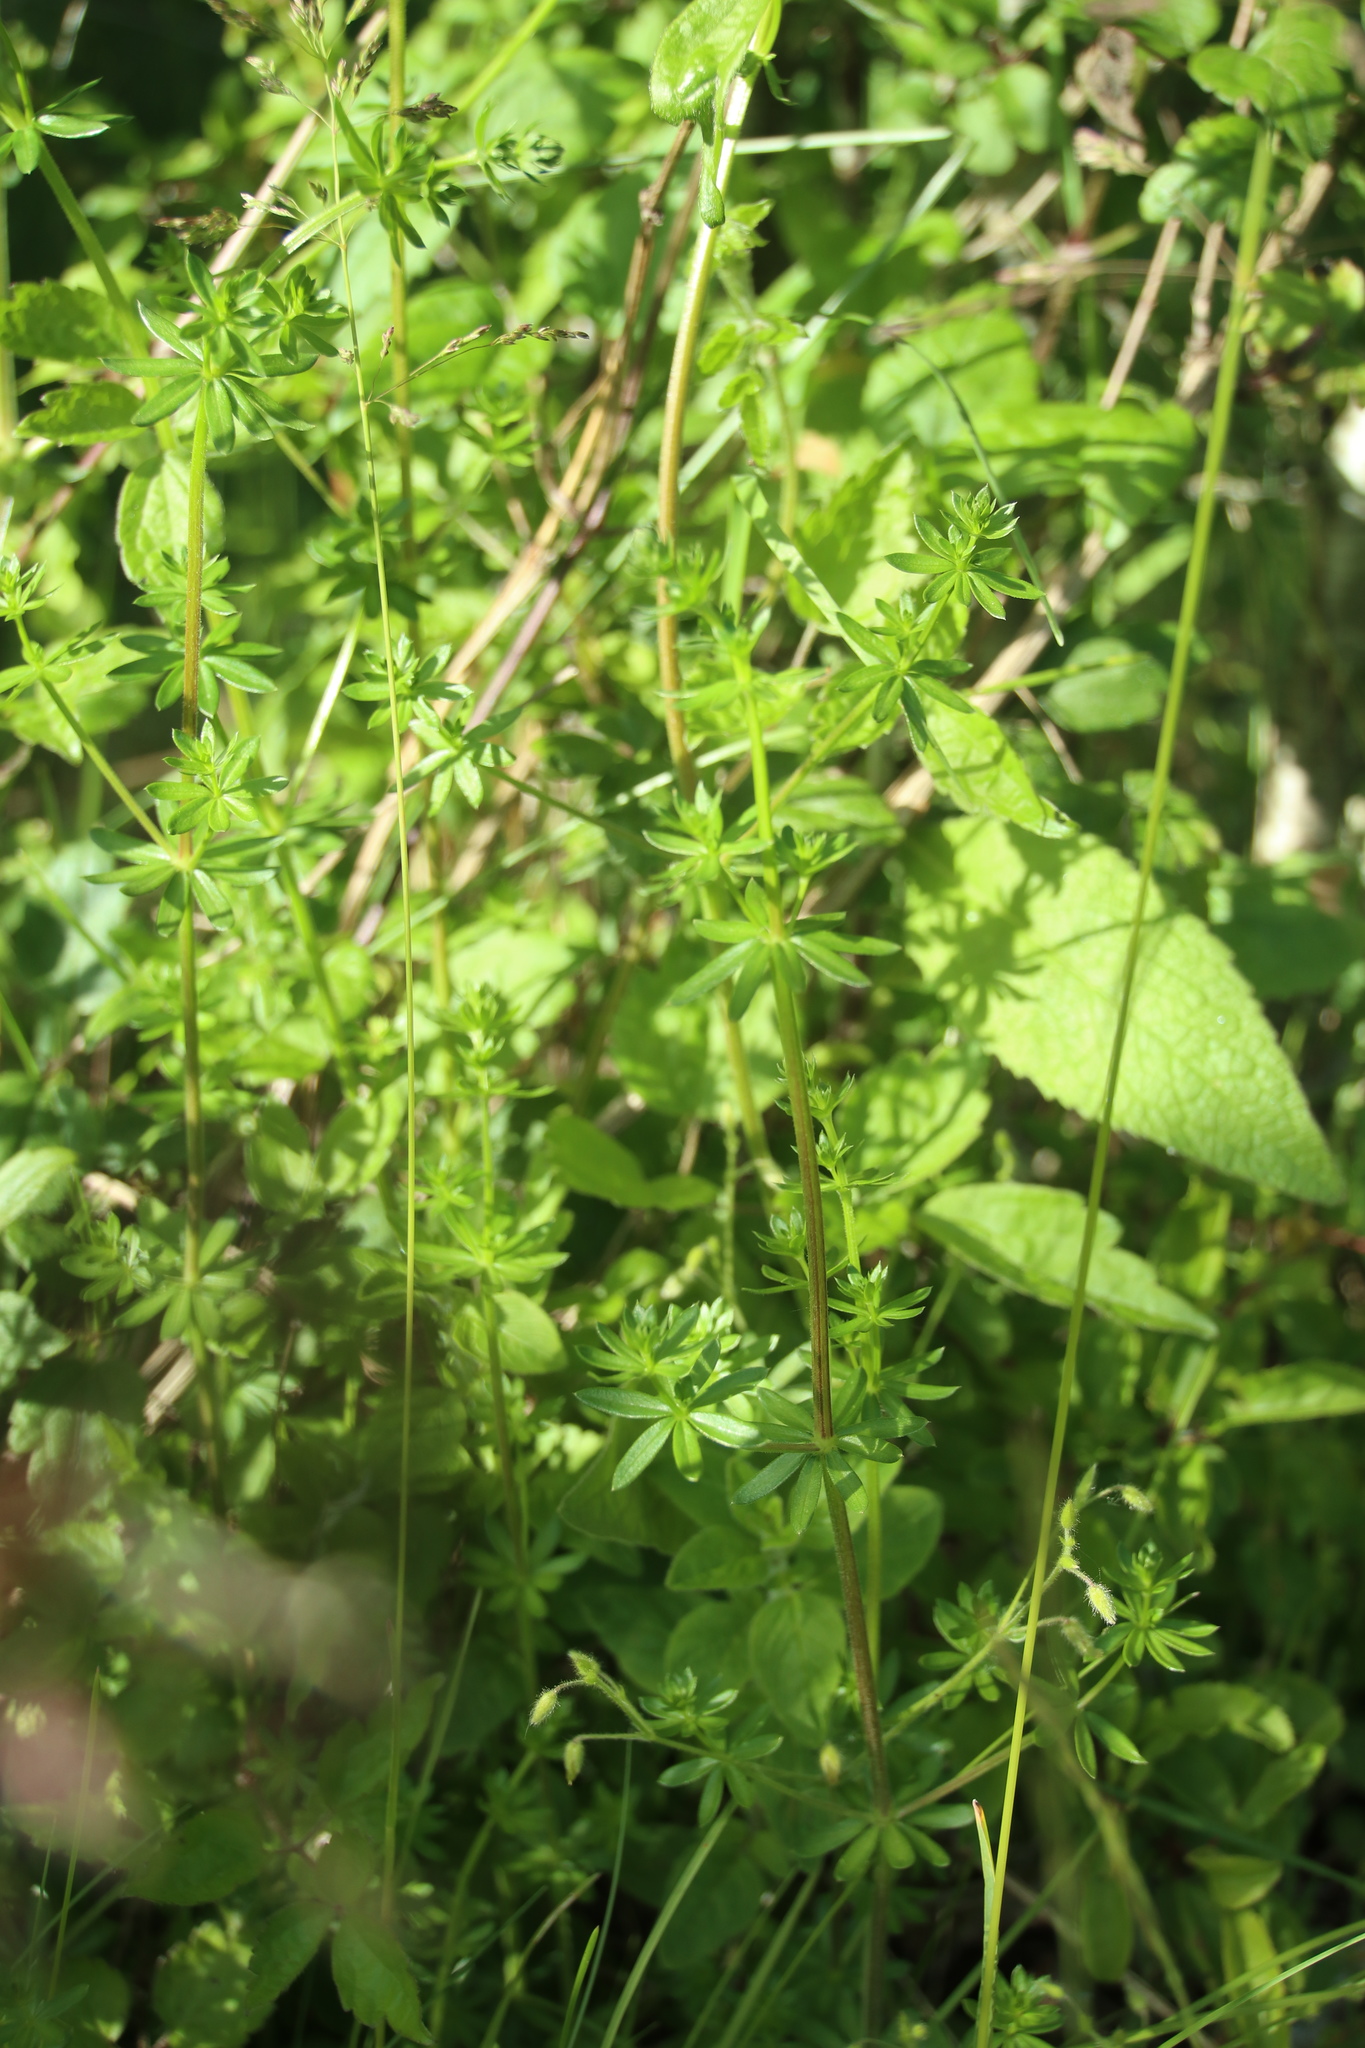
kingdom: Plantae
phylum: Tracheophyta
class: Magnoliopsida
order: Gentianales
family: Rubiaceae
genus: Galium
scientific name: Galium mollugo
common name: Hedge bedstraw
